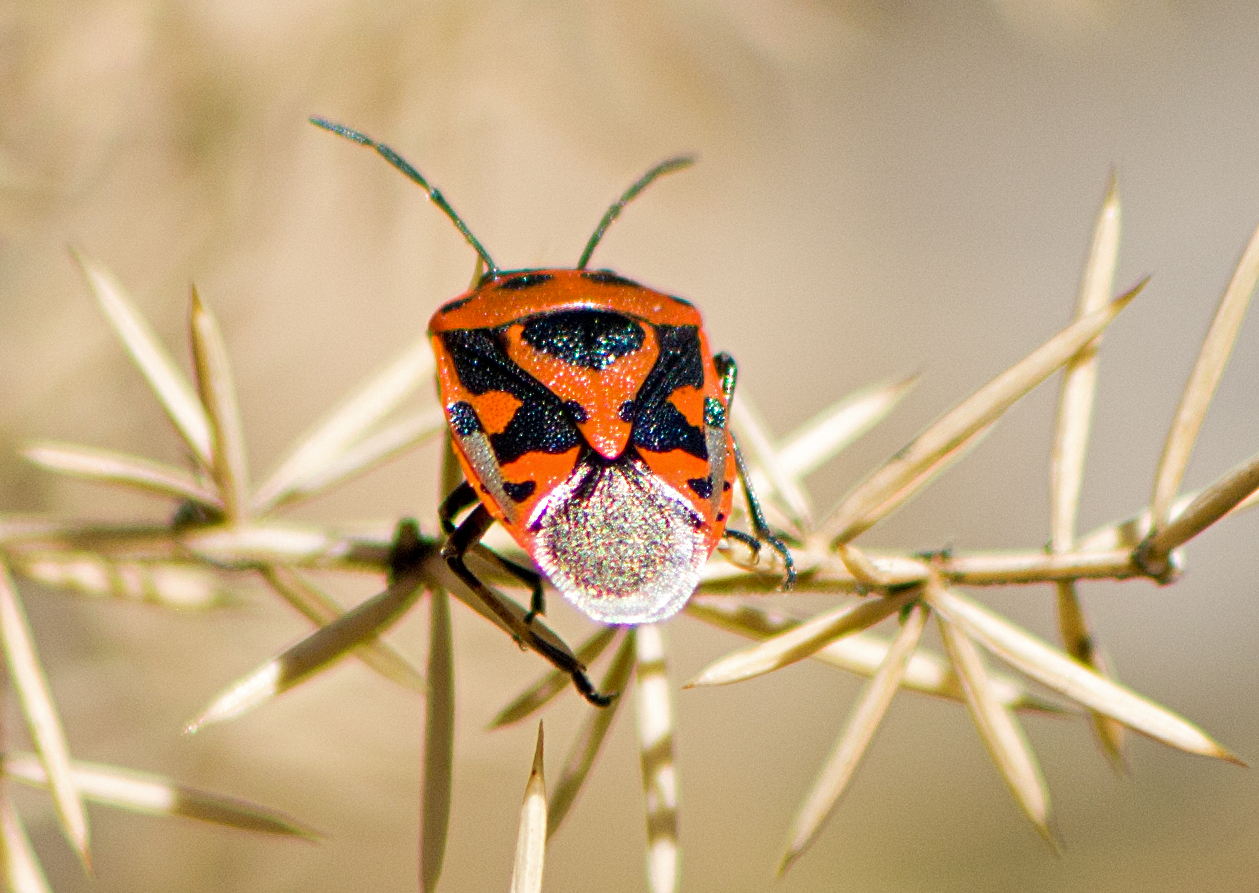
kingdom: Animalia
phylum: Arthropoda
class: Insecta
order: Hemiptera
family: Pentatomidae
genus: Eurydema
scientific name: Eurydema ornata
